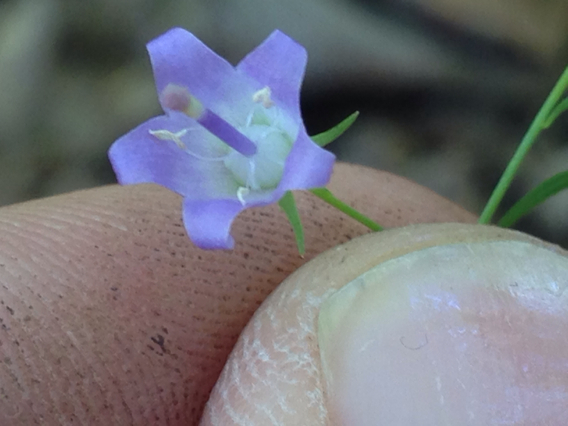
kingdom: Plantae
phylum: Tracheophyta
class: Magnoliopsida
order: Asterales
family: Campanulaceae
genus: Campanula
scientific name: Campanula divaricata
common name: Appalachian bellflower
